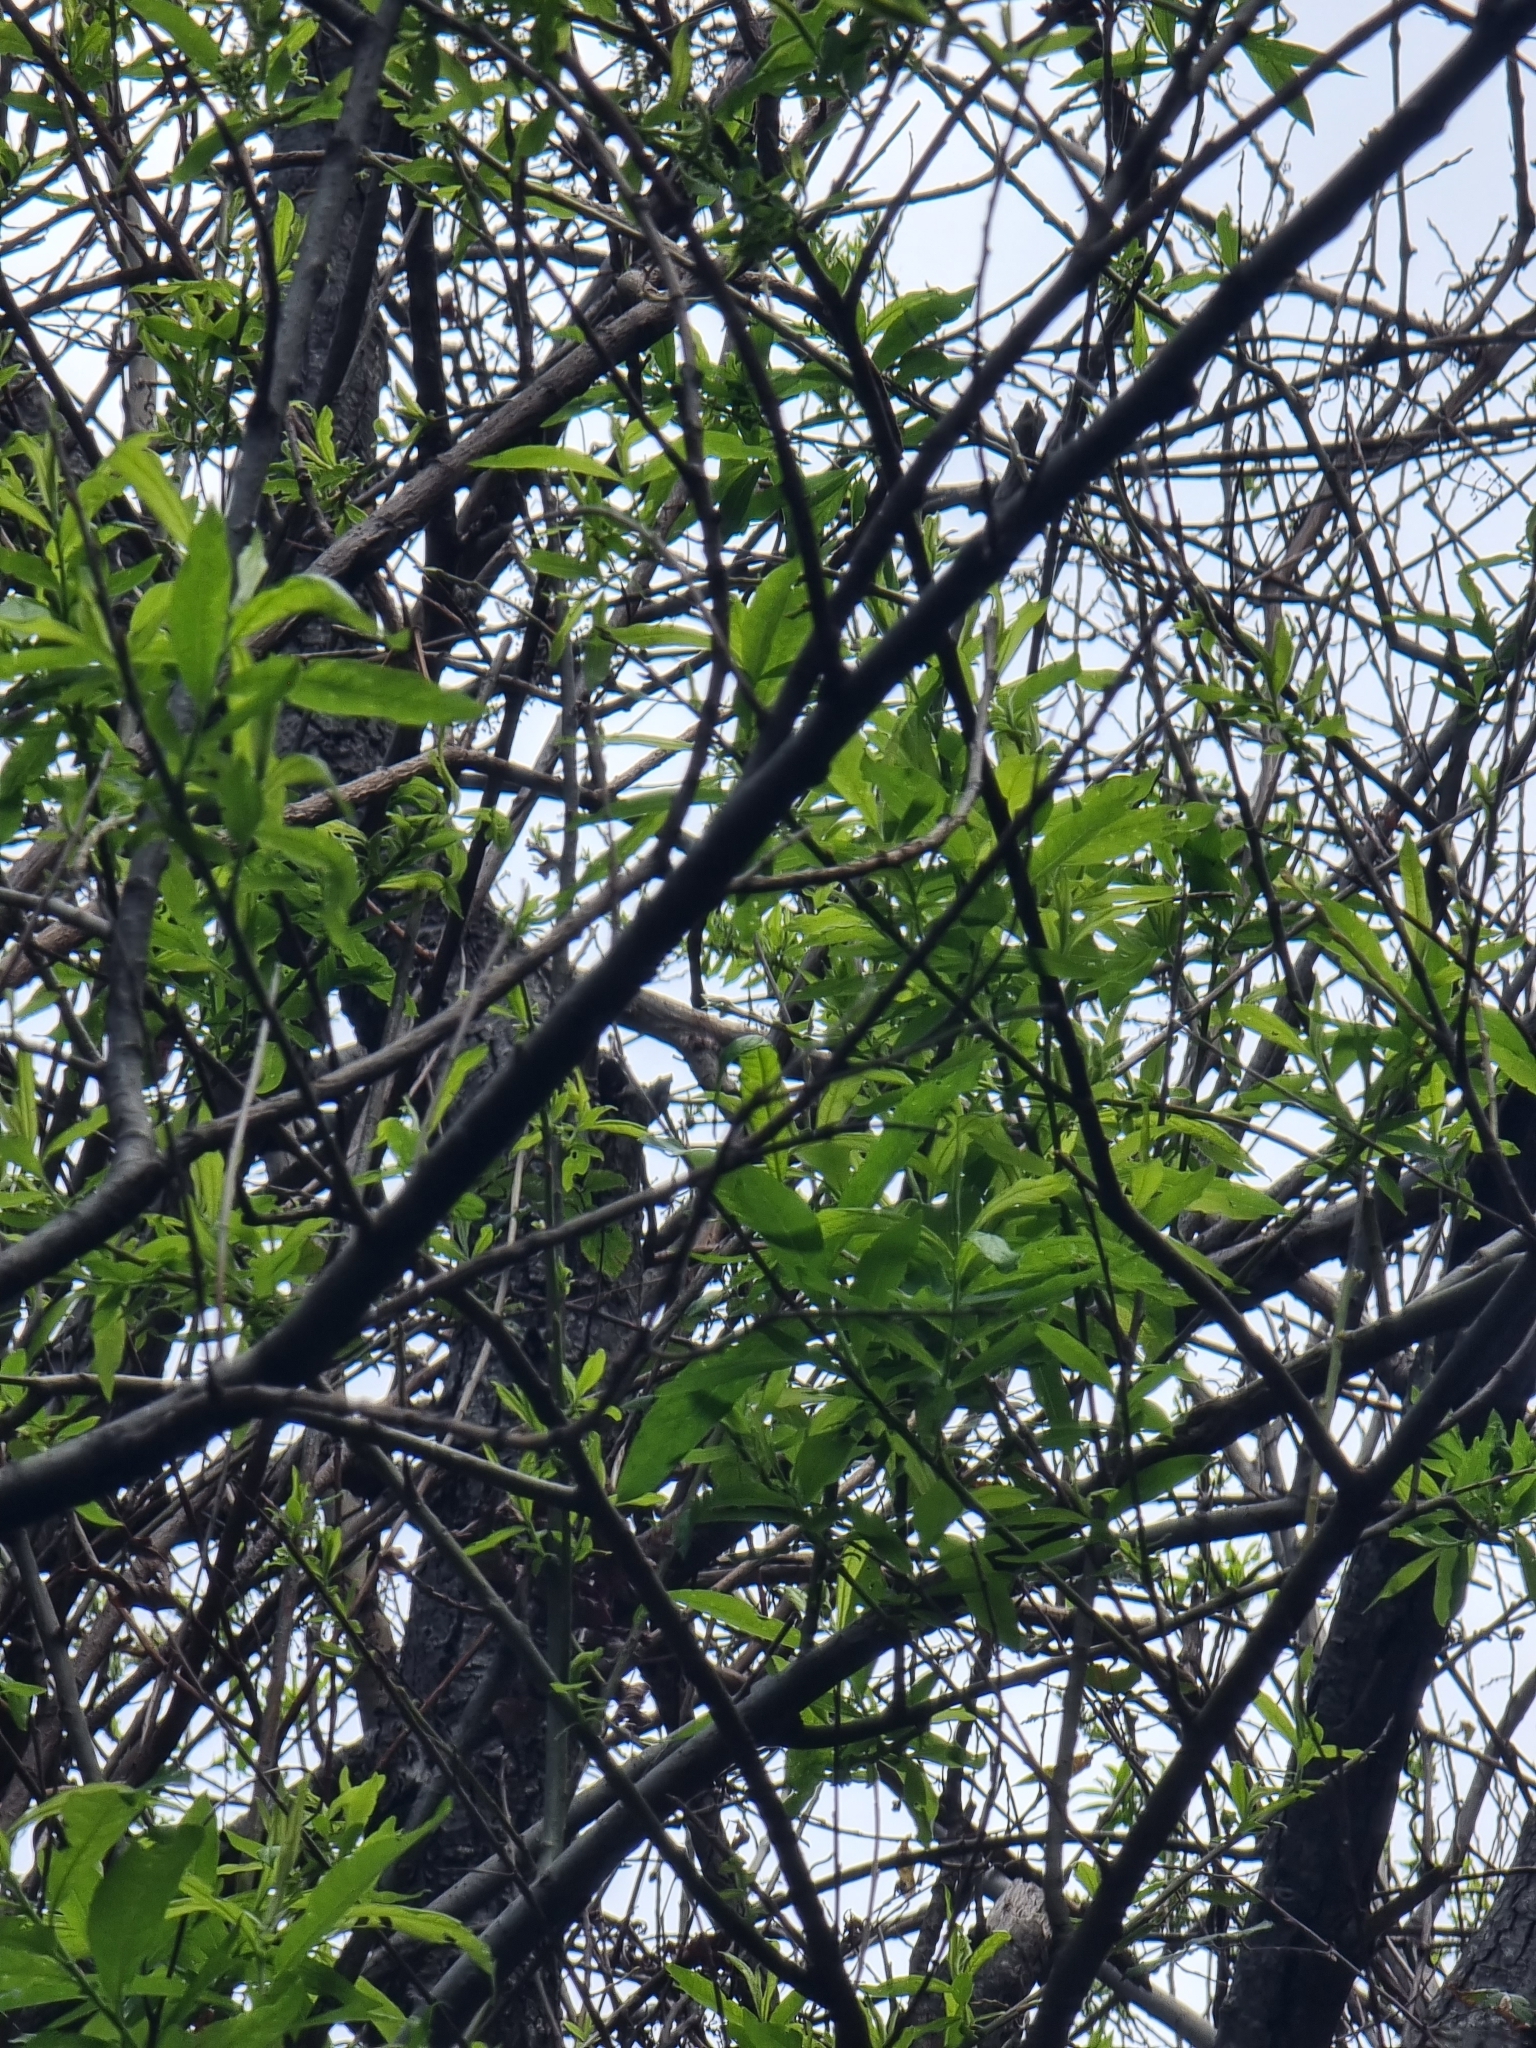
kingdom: Plantae
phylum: Tracheophyta
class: Magnoliopsida
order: Malpighiales
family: Salicaceae
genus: Salix
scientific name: Salix canariensis
